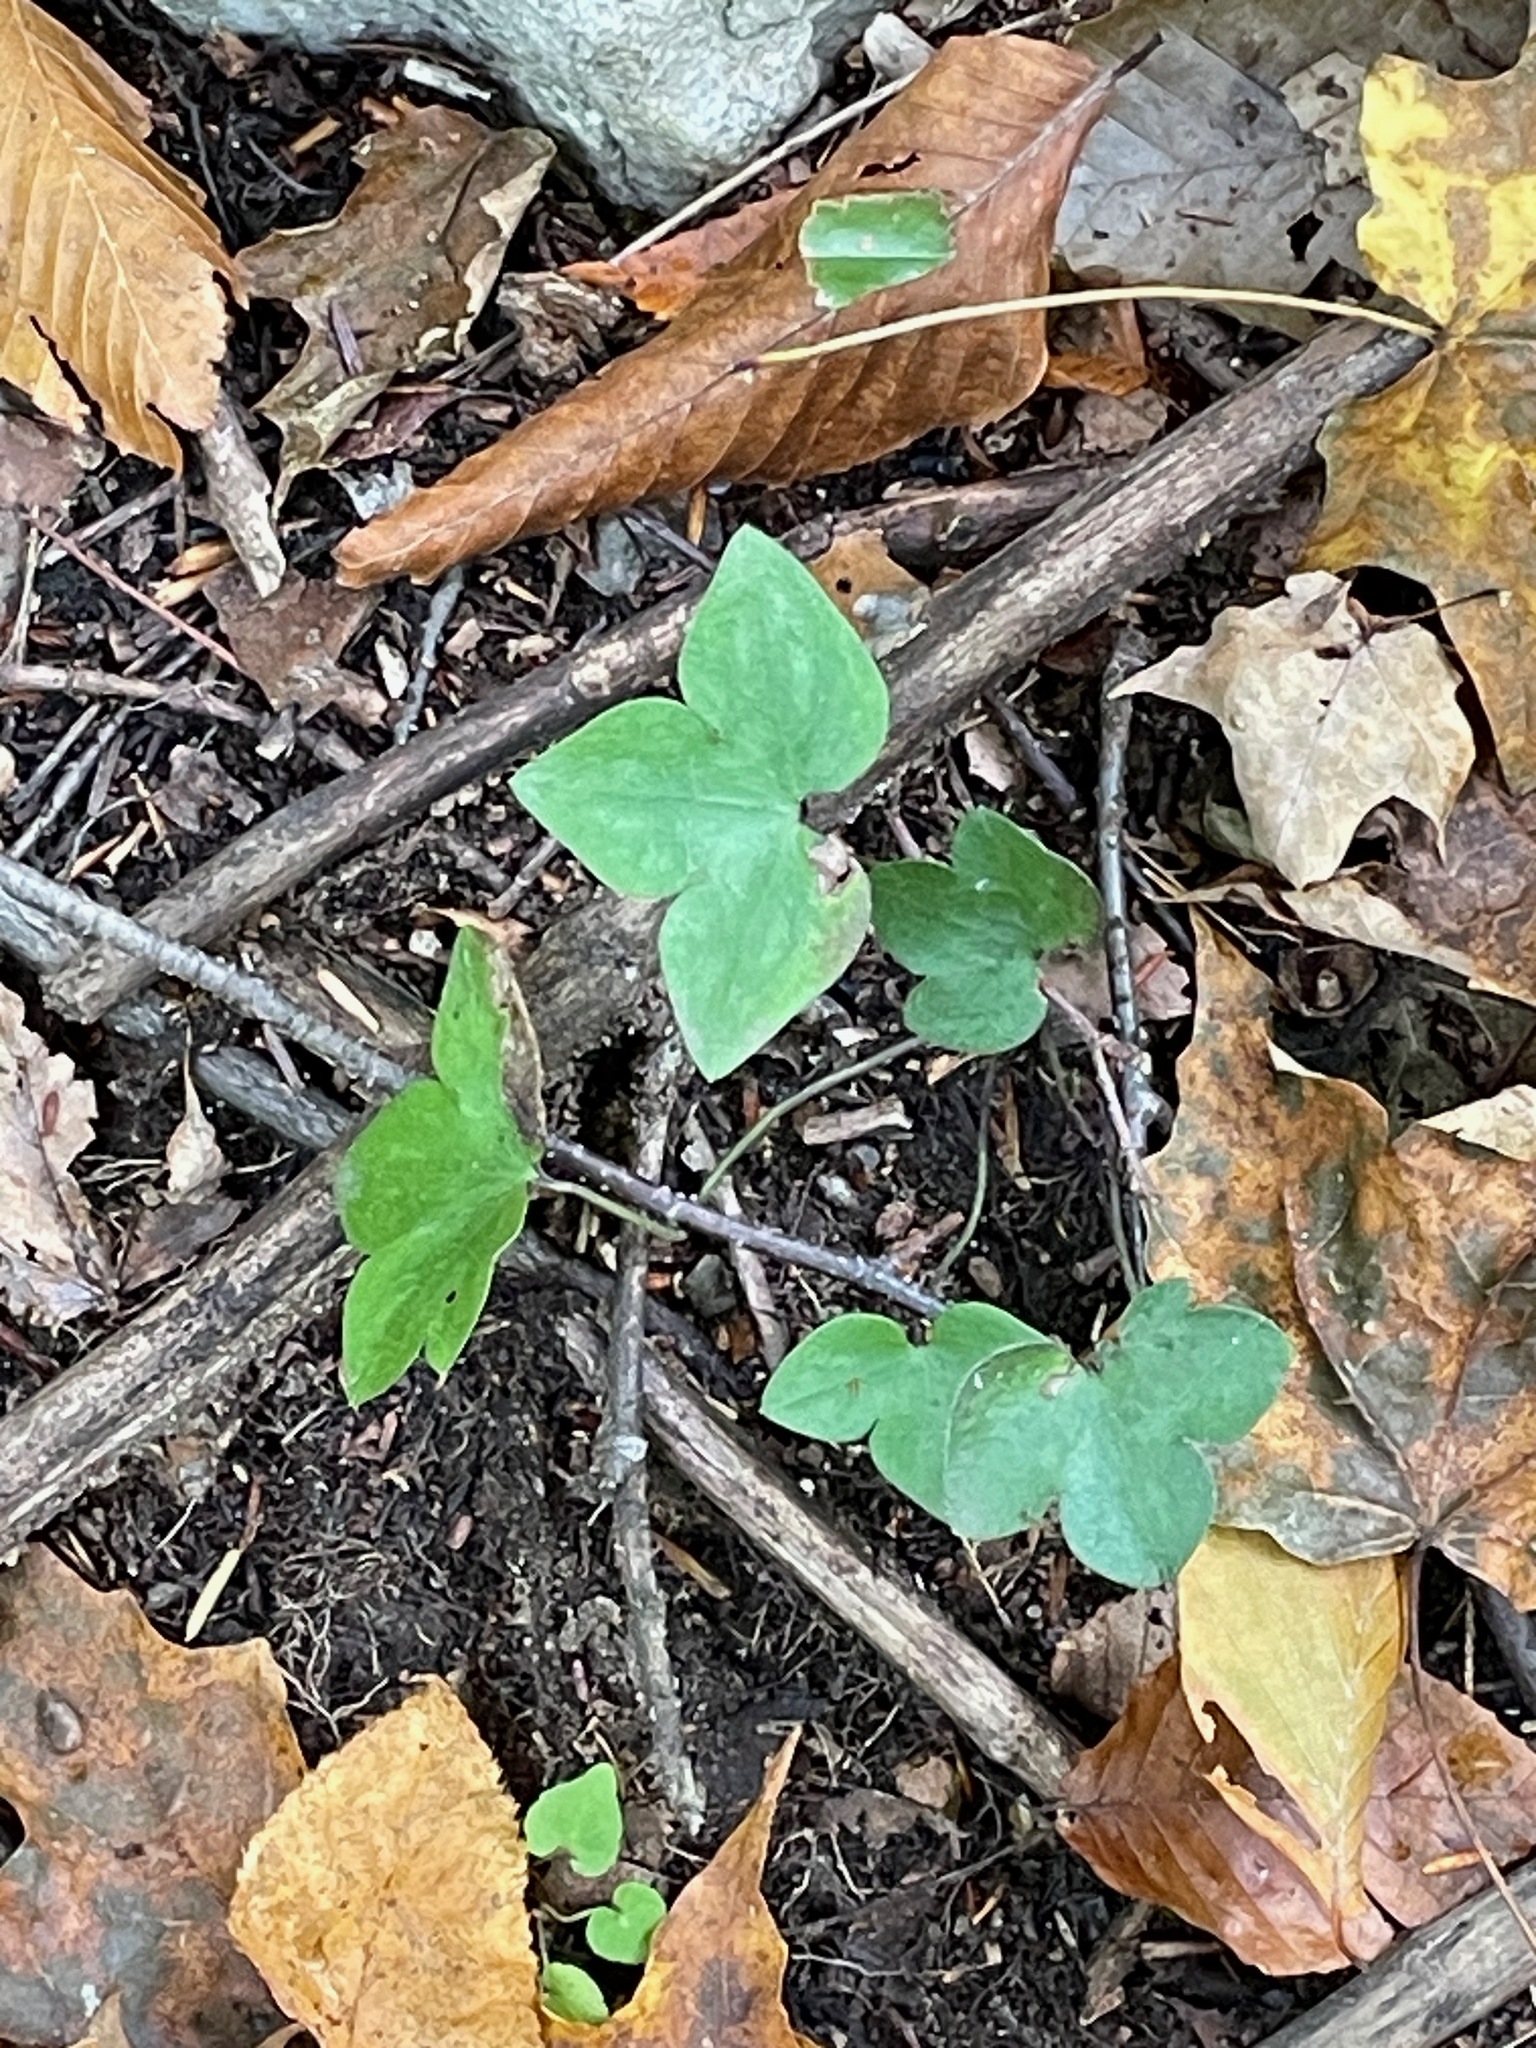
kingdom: Plantae
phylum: Tracheophyta
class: Magnoliopsida
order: Ranunculales
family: Ranunculaceae
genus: Hepatica
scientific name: Hepatica acutiloba
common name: Sharp-lobed hepatica
